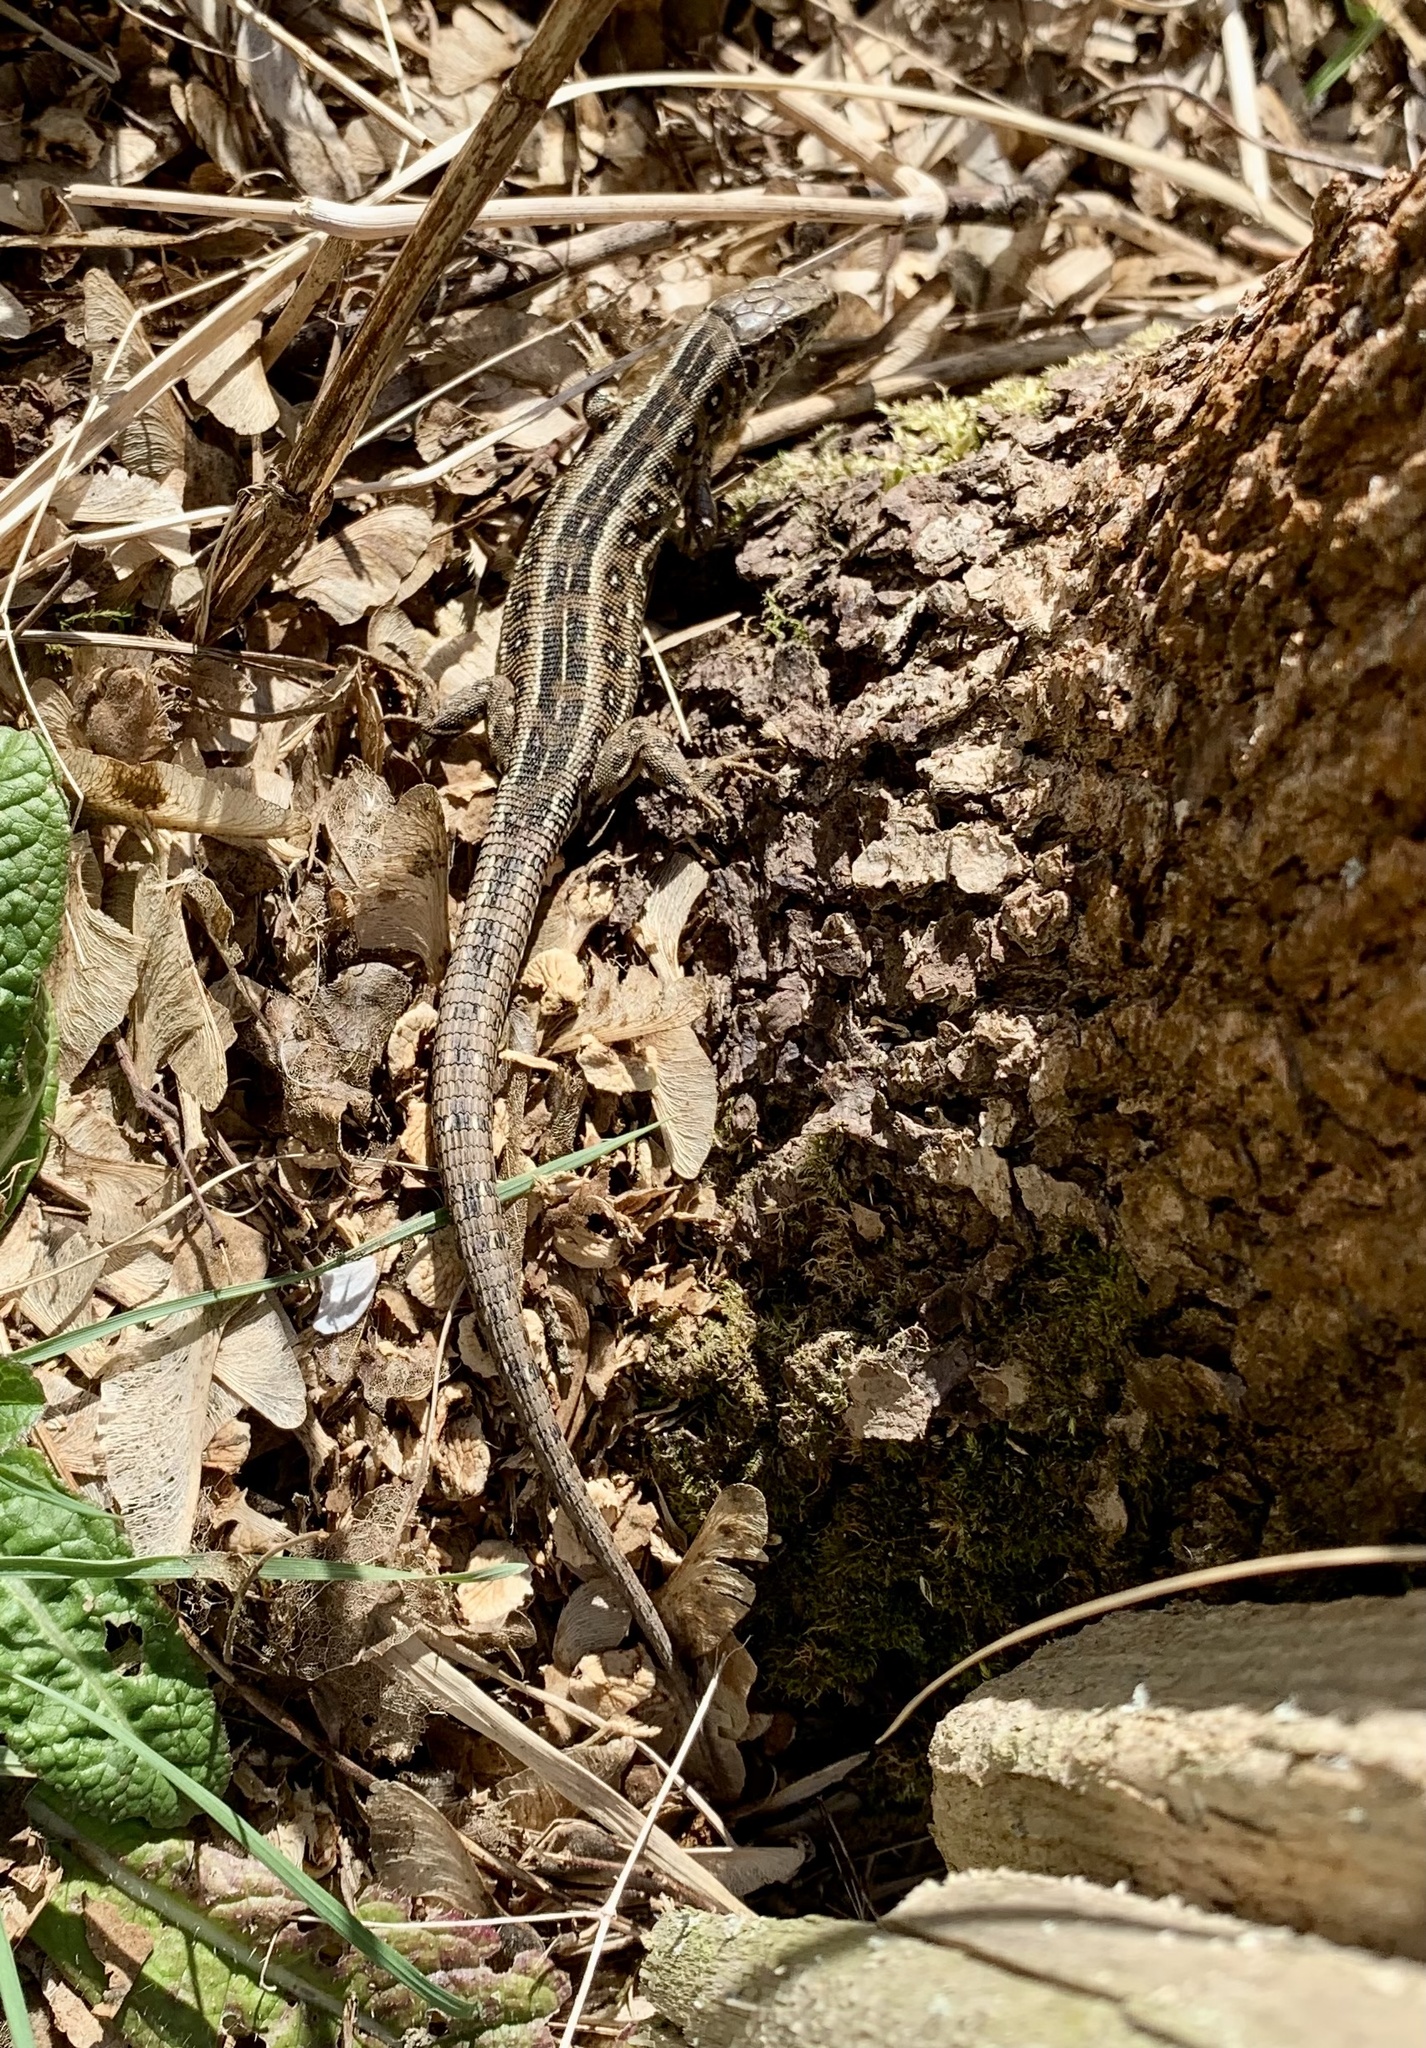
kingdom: Animalia
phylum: Chordata
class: Squamata
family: Lacertidae
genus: Lacerta
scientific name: Lacerta agilis
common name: Sand lizard
